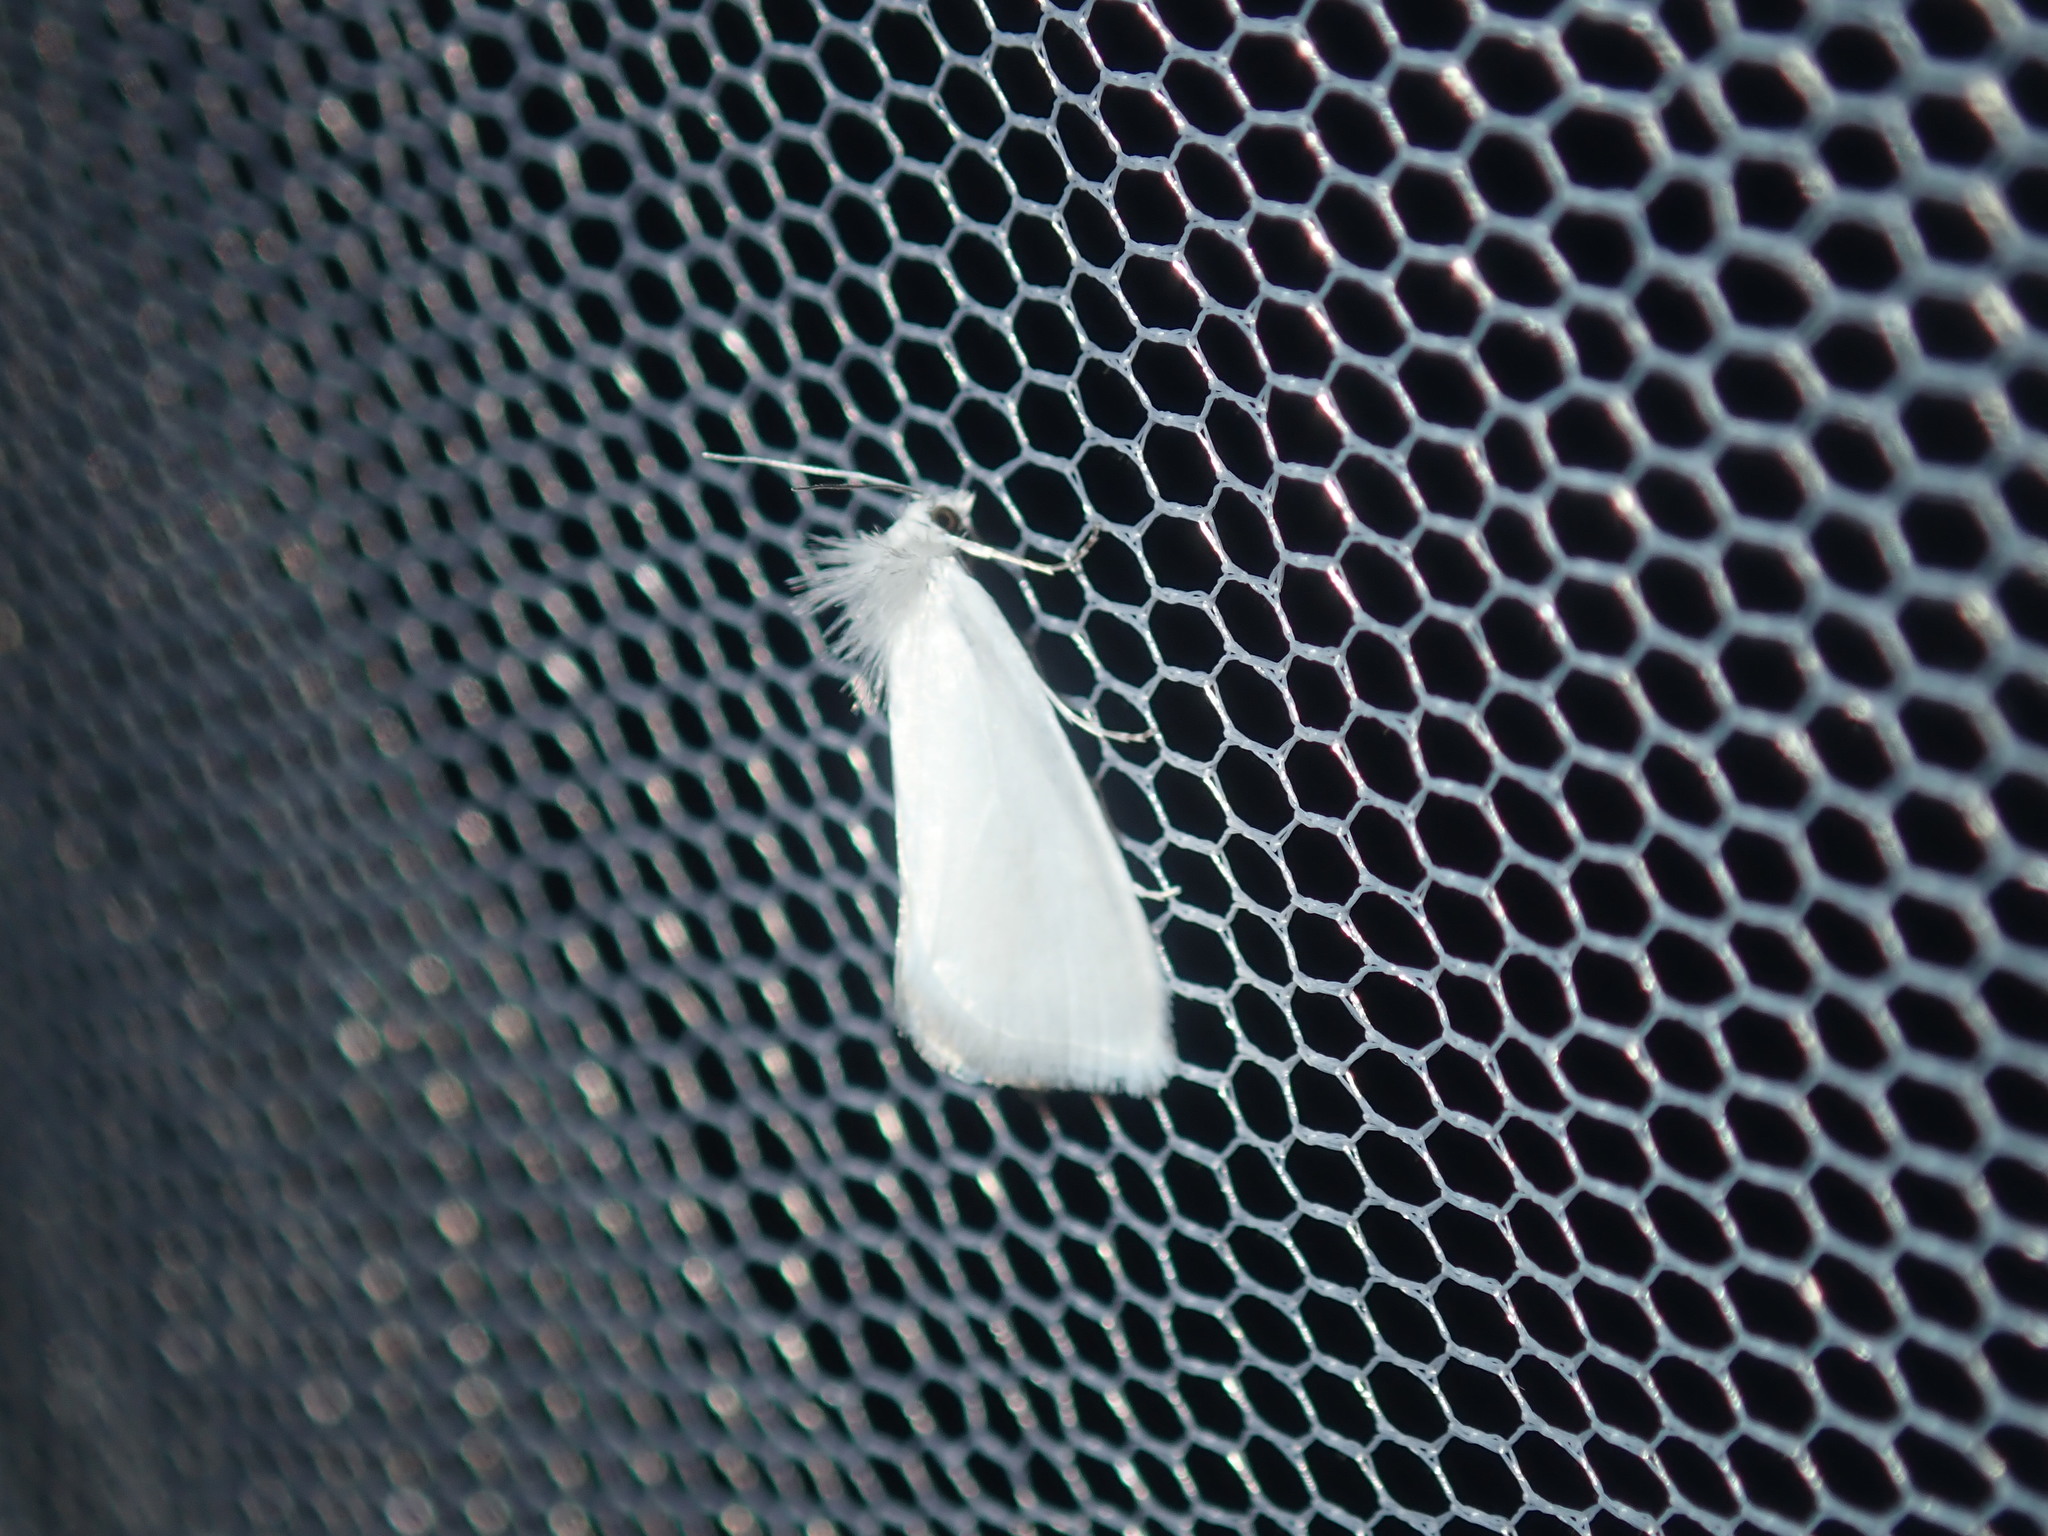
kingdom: Animalia
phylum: Arthropoda
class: Insecta
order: Lepidoptera
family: Crambidae
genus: Tipanaea
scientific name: Tipanaea patulella
